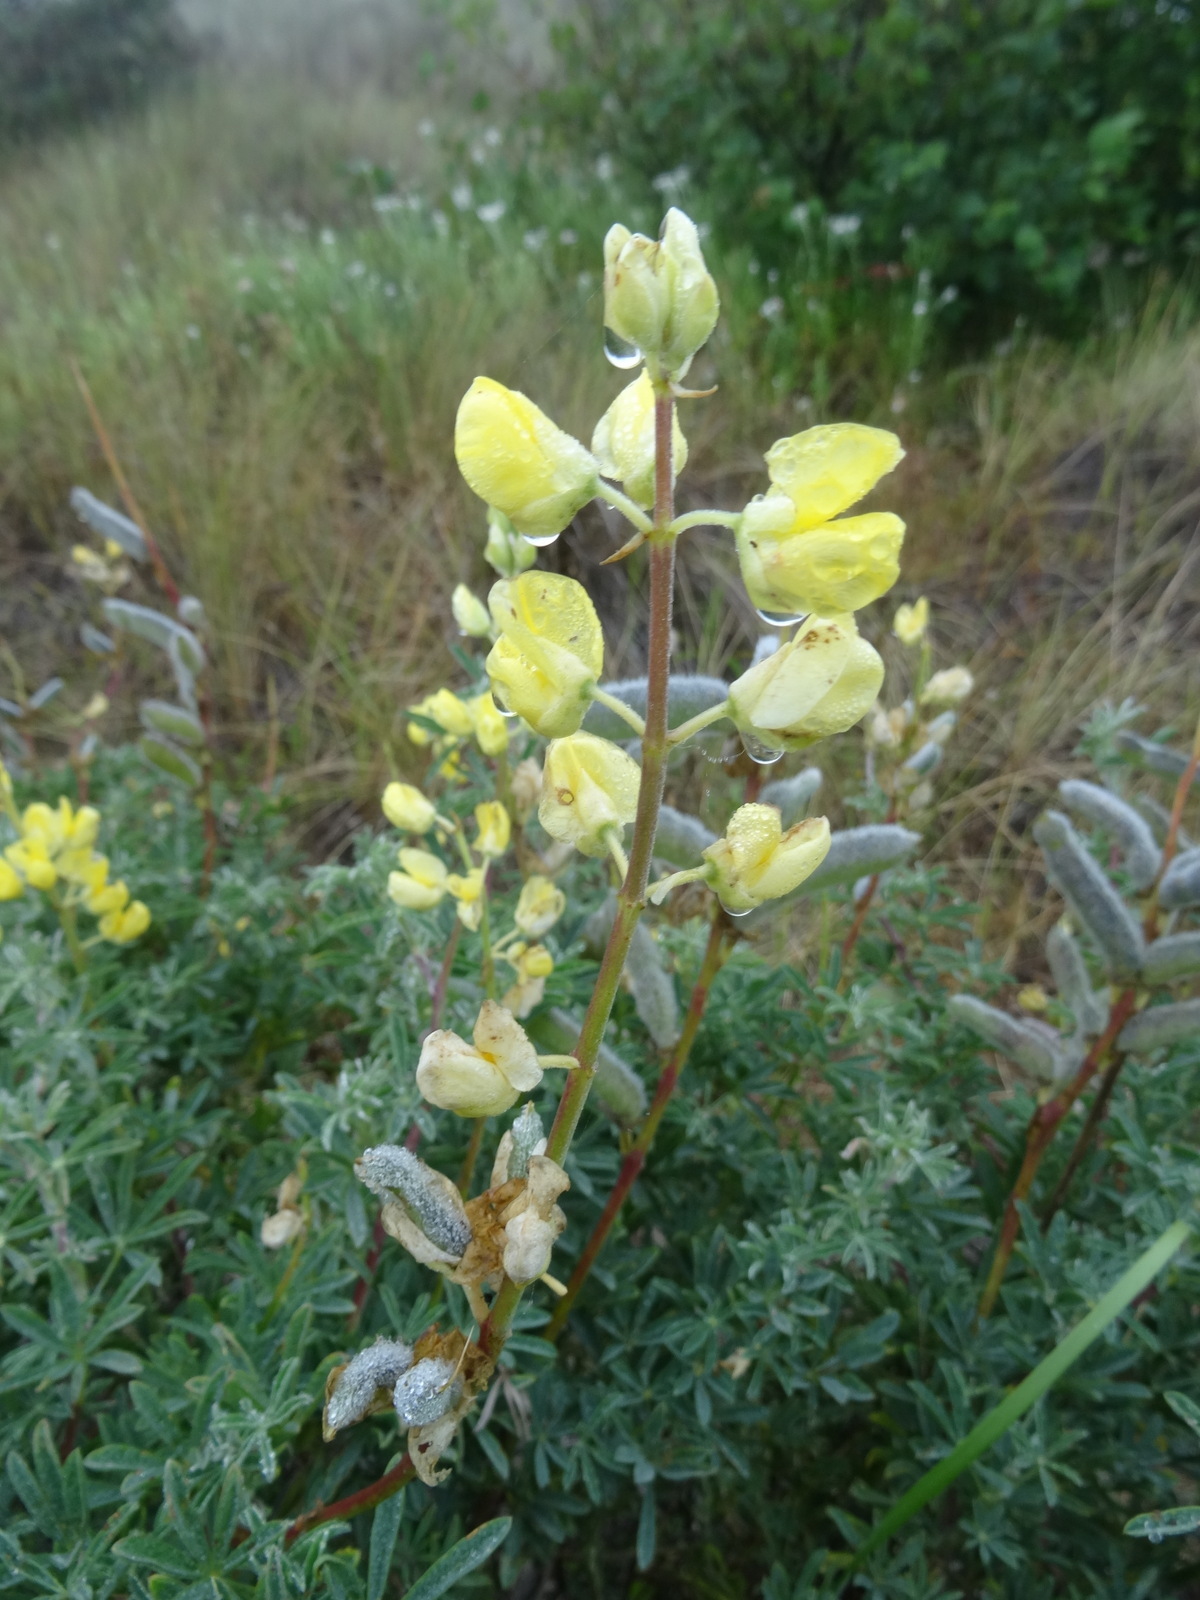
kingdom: Plantae
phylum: Tracheophyta
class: Magnoliopsida
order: Fabales
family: Fabaceae
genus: Lupinus
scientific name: Lupinus arboreus
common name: Yellow bush lupine
